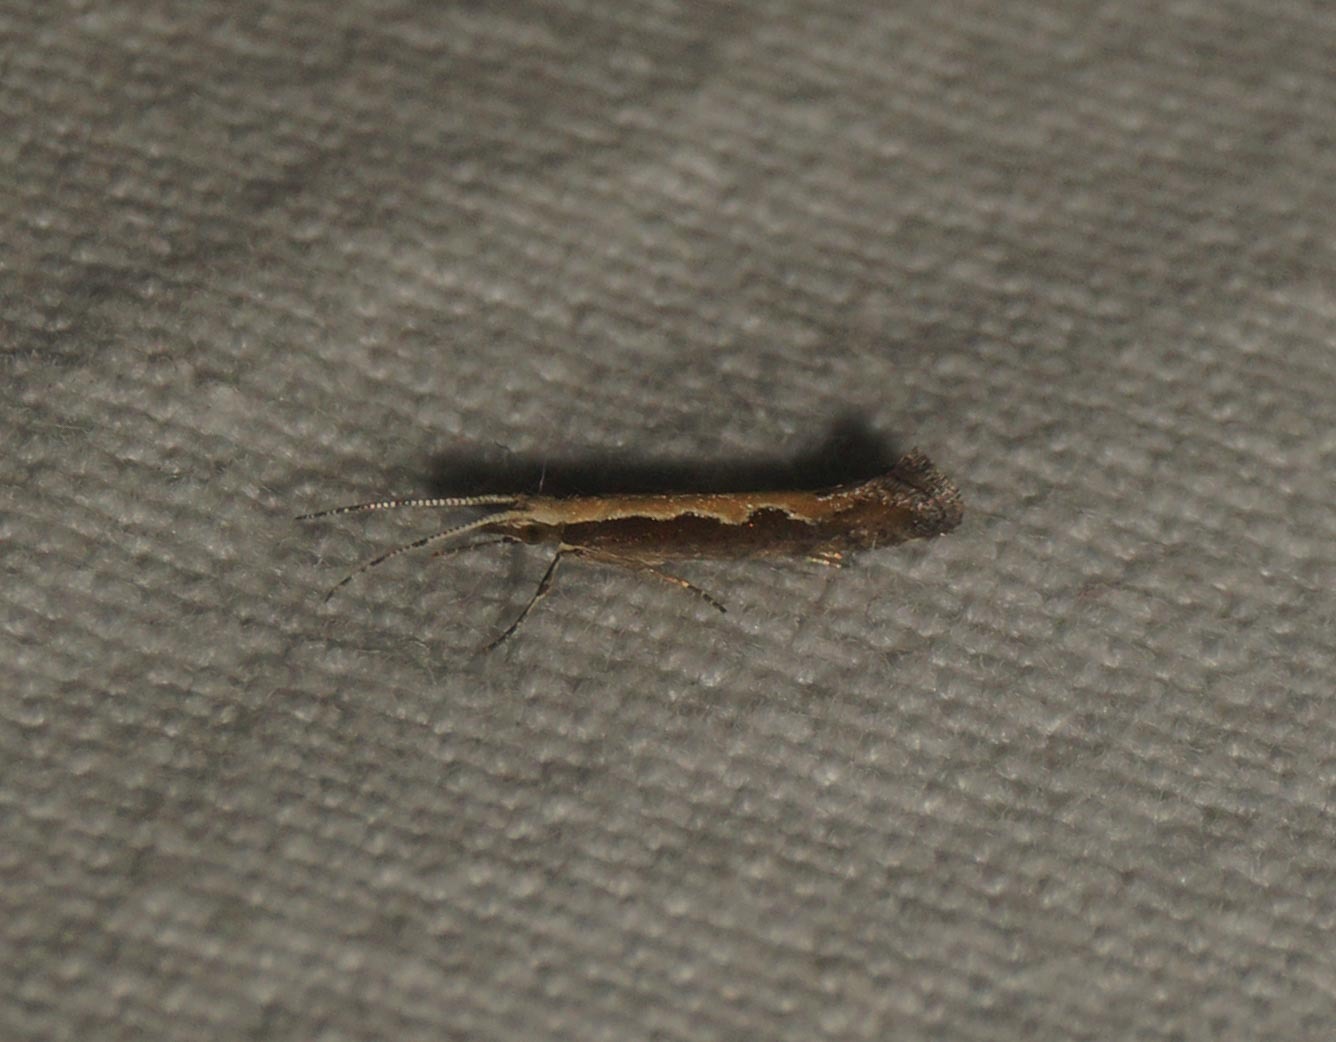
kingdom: Animalia
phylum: Arthropoda
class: Insecta
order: Lepidoptera
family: Plutellidae
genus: Plutella
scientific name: Plutella xylostella
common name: Diamond-back moth
